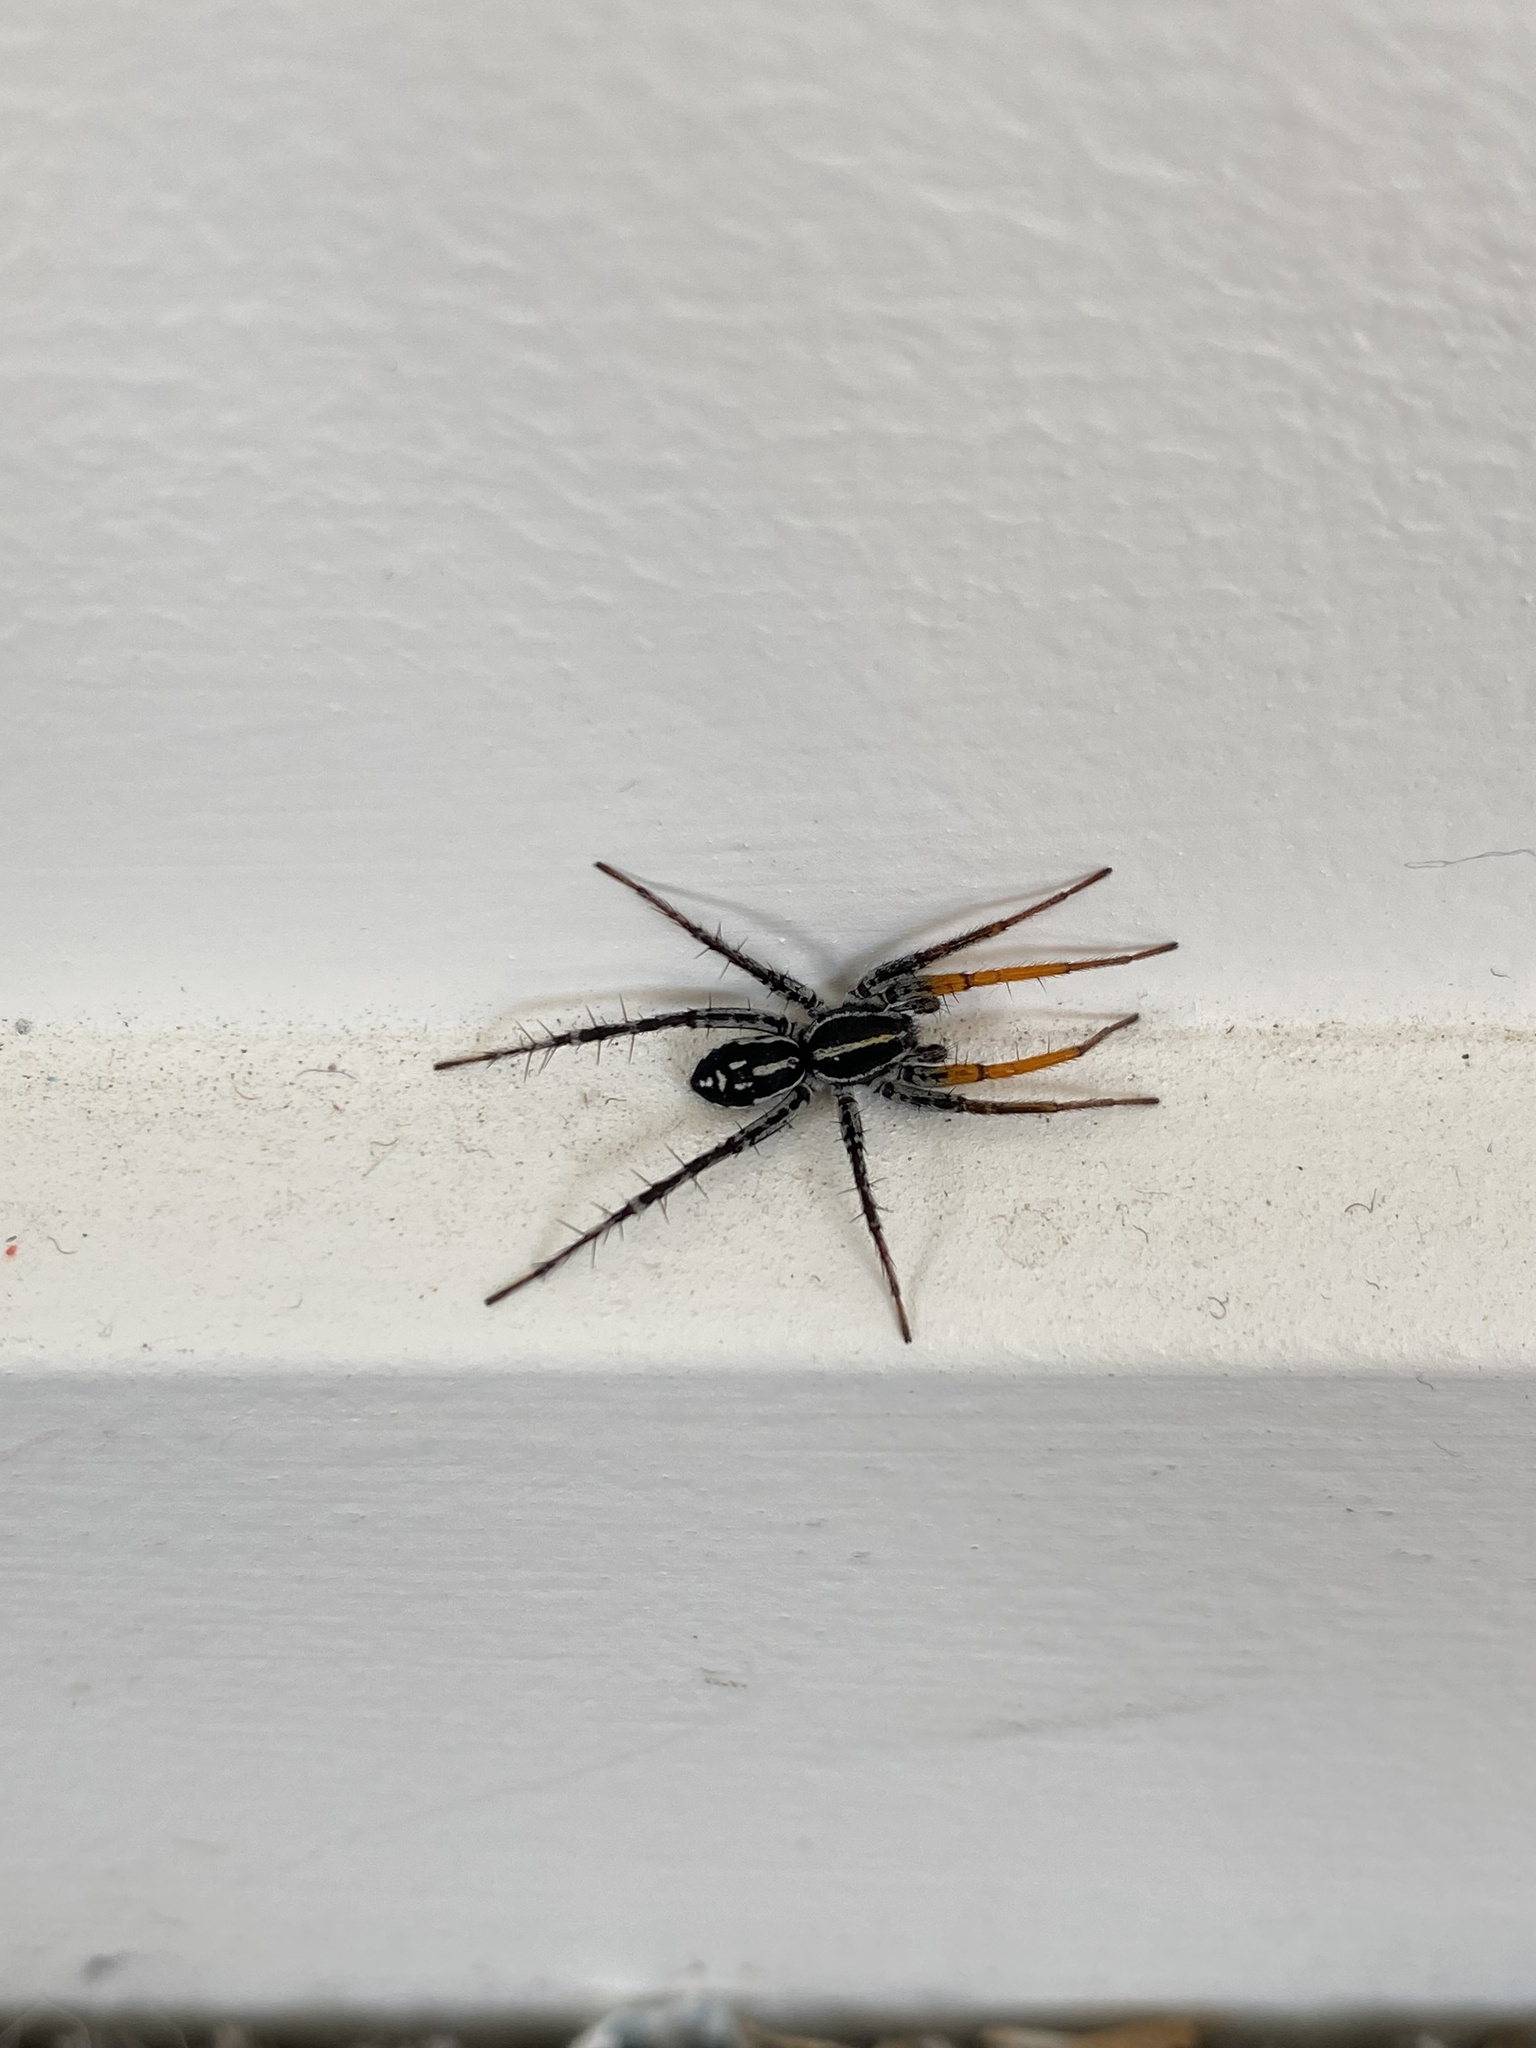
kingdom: Animalia
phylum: Arthropoda
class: Arachnida
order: Araneae
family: Corinnidae
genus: Nyssus
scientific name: Nyssus coloripes
